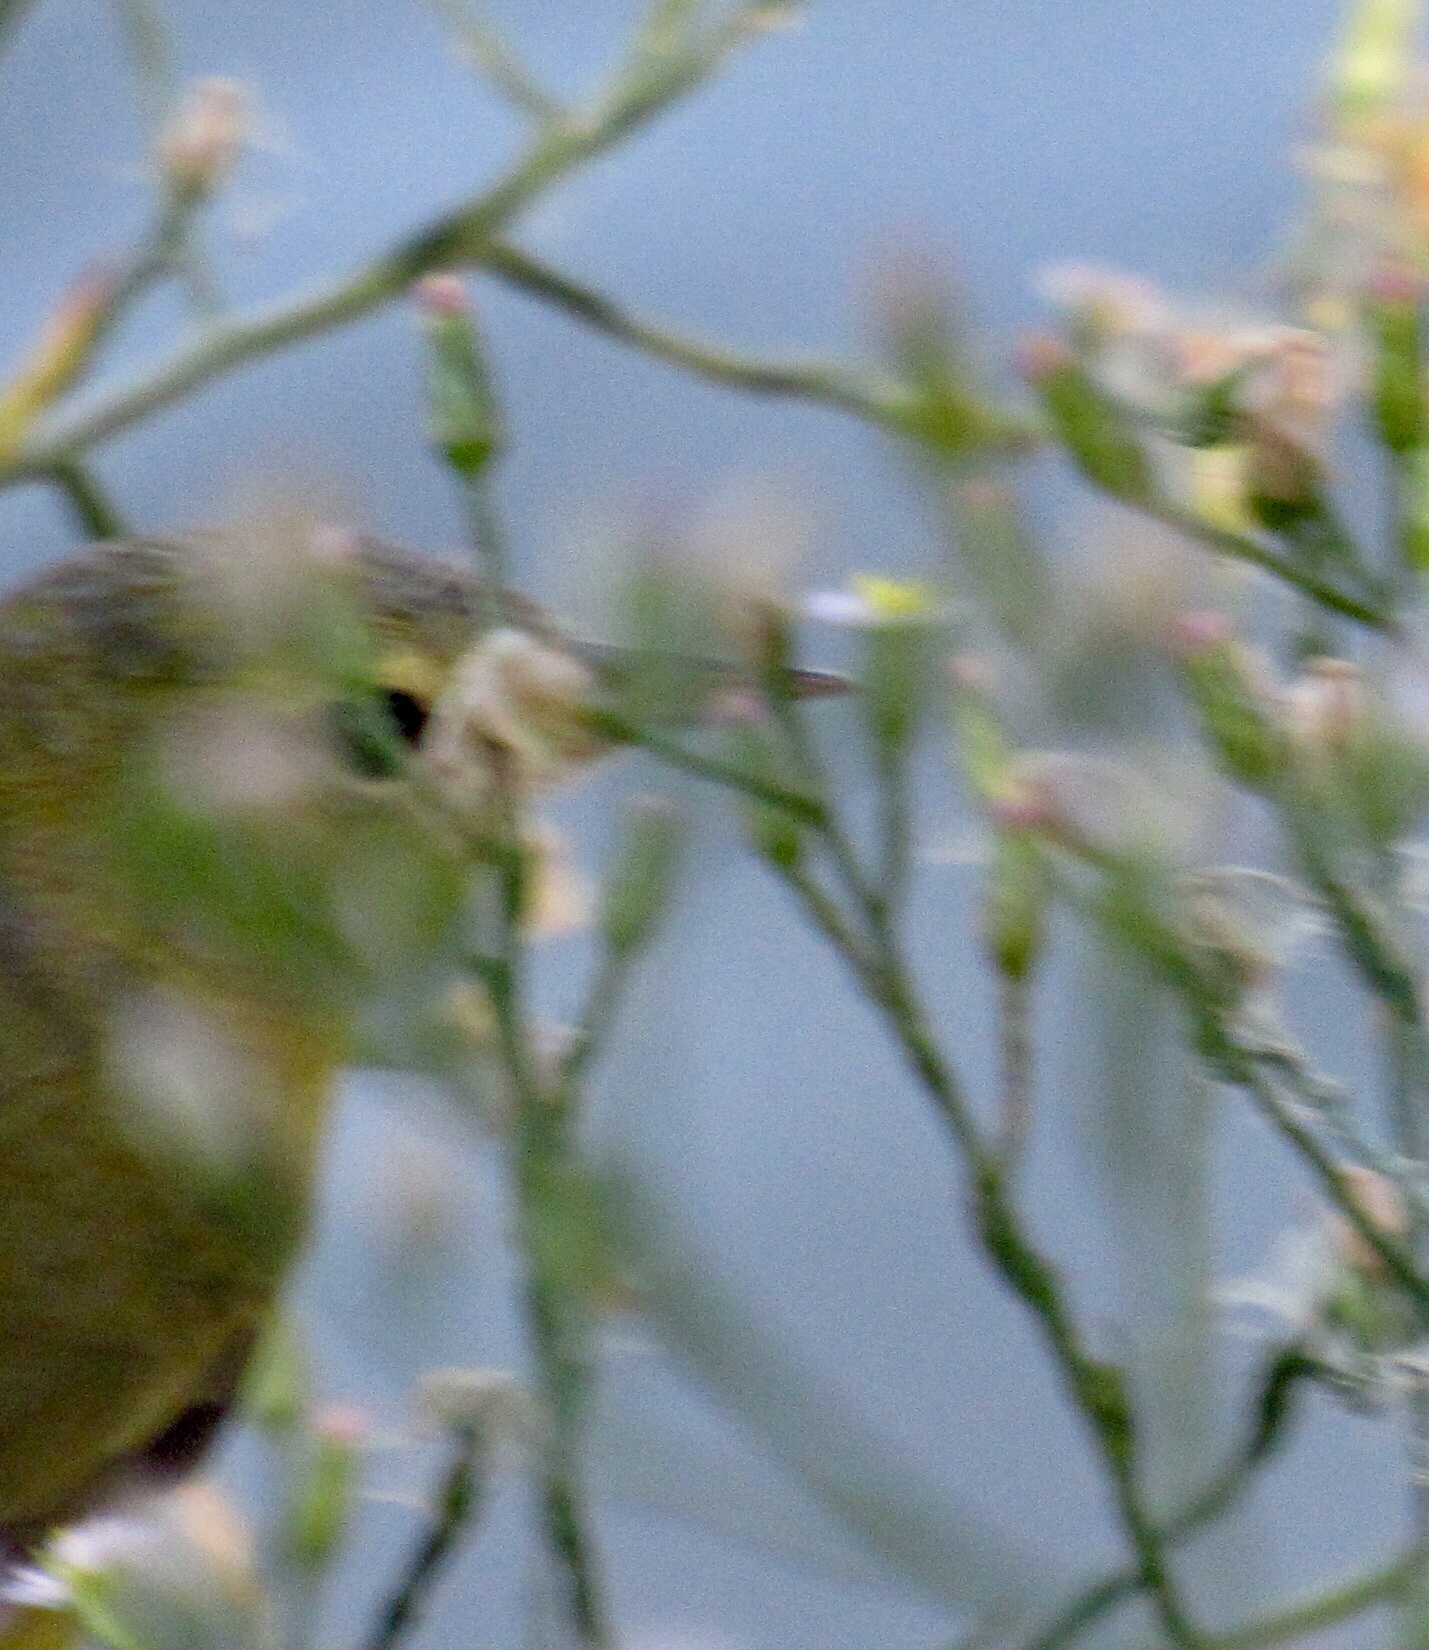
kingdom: Animalia
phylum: Chordata
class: Aves
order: Passeriformes
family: Parulidae
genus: Leiothlypis
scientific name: Leiothlypis celata
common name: Orange-crowned warbler
